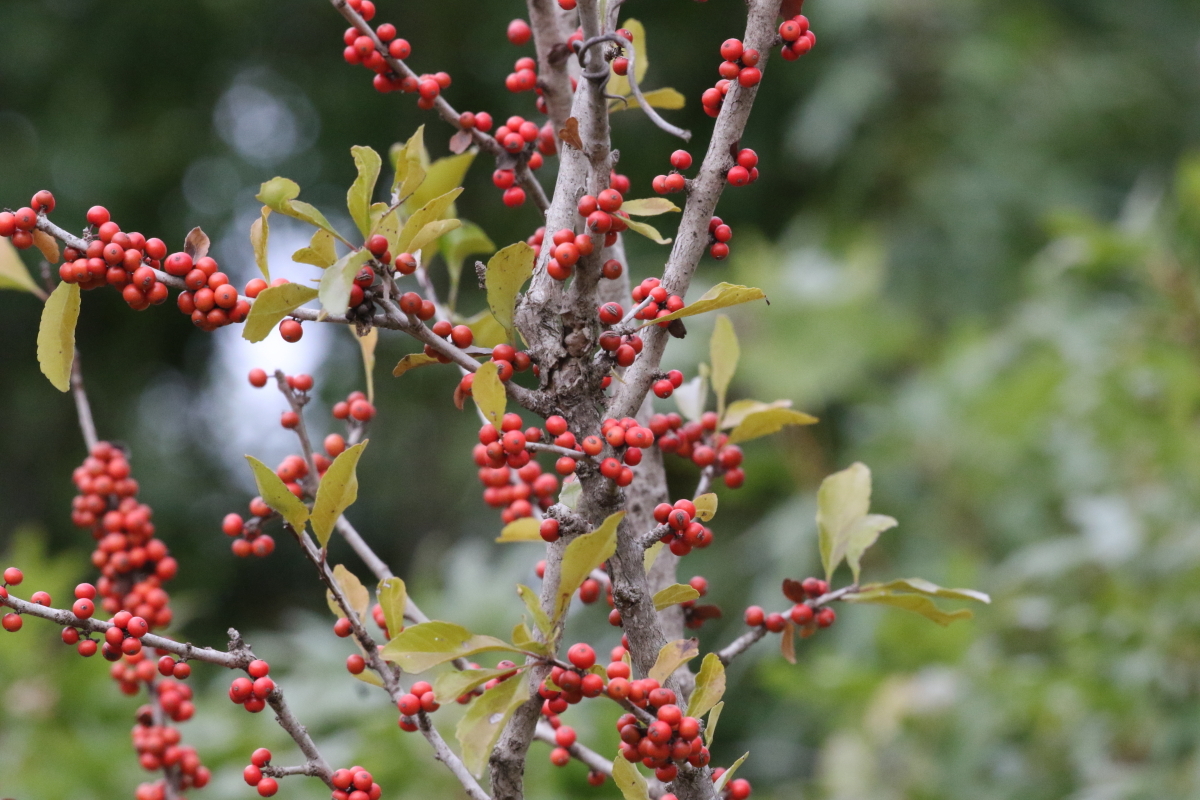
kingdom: Plantae
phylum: Tracheophyta
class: Magnoliopsida
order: Aquifoliales
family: Aquifoliaceae
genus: Ilex
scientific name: Ilex decidua
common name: Possum-haw
